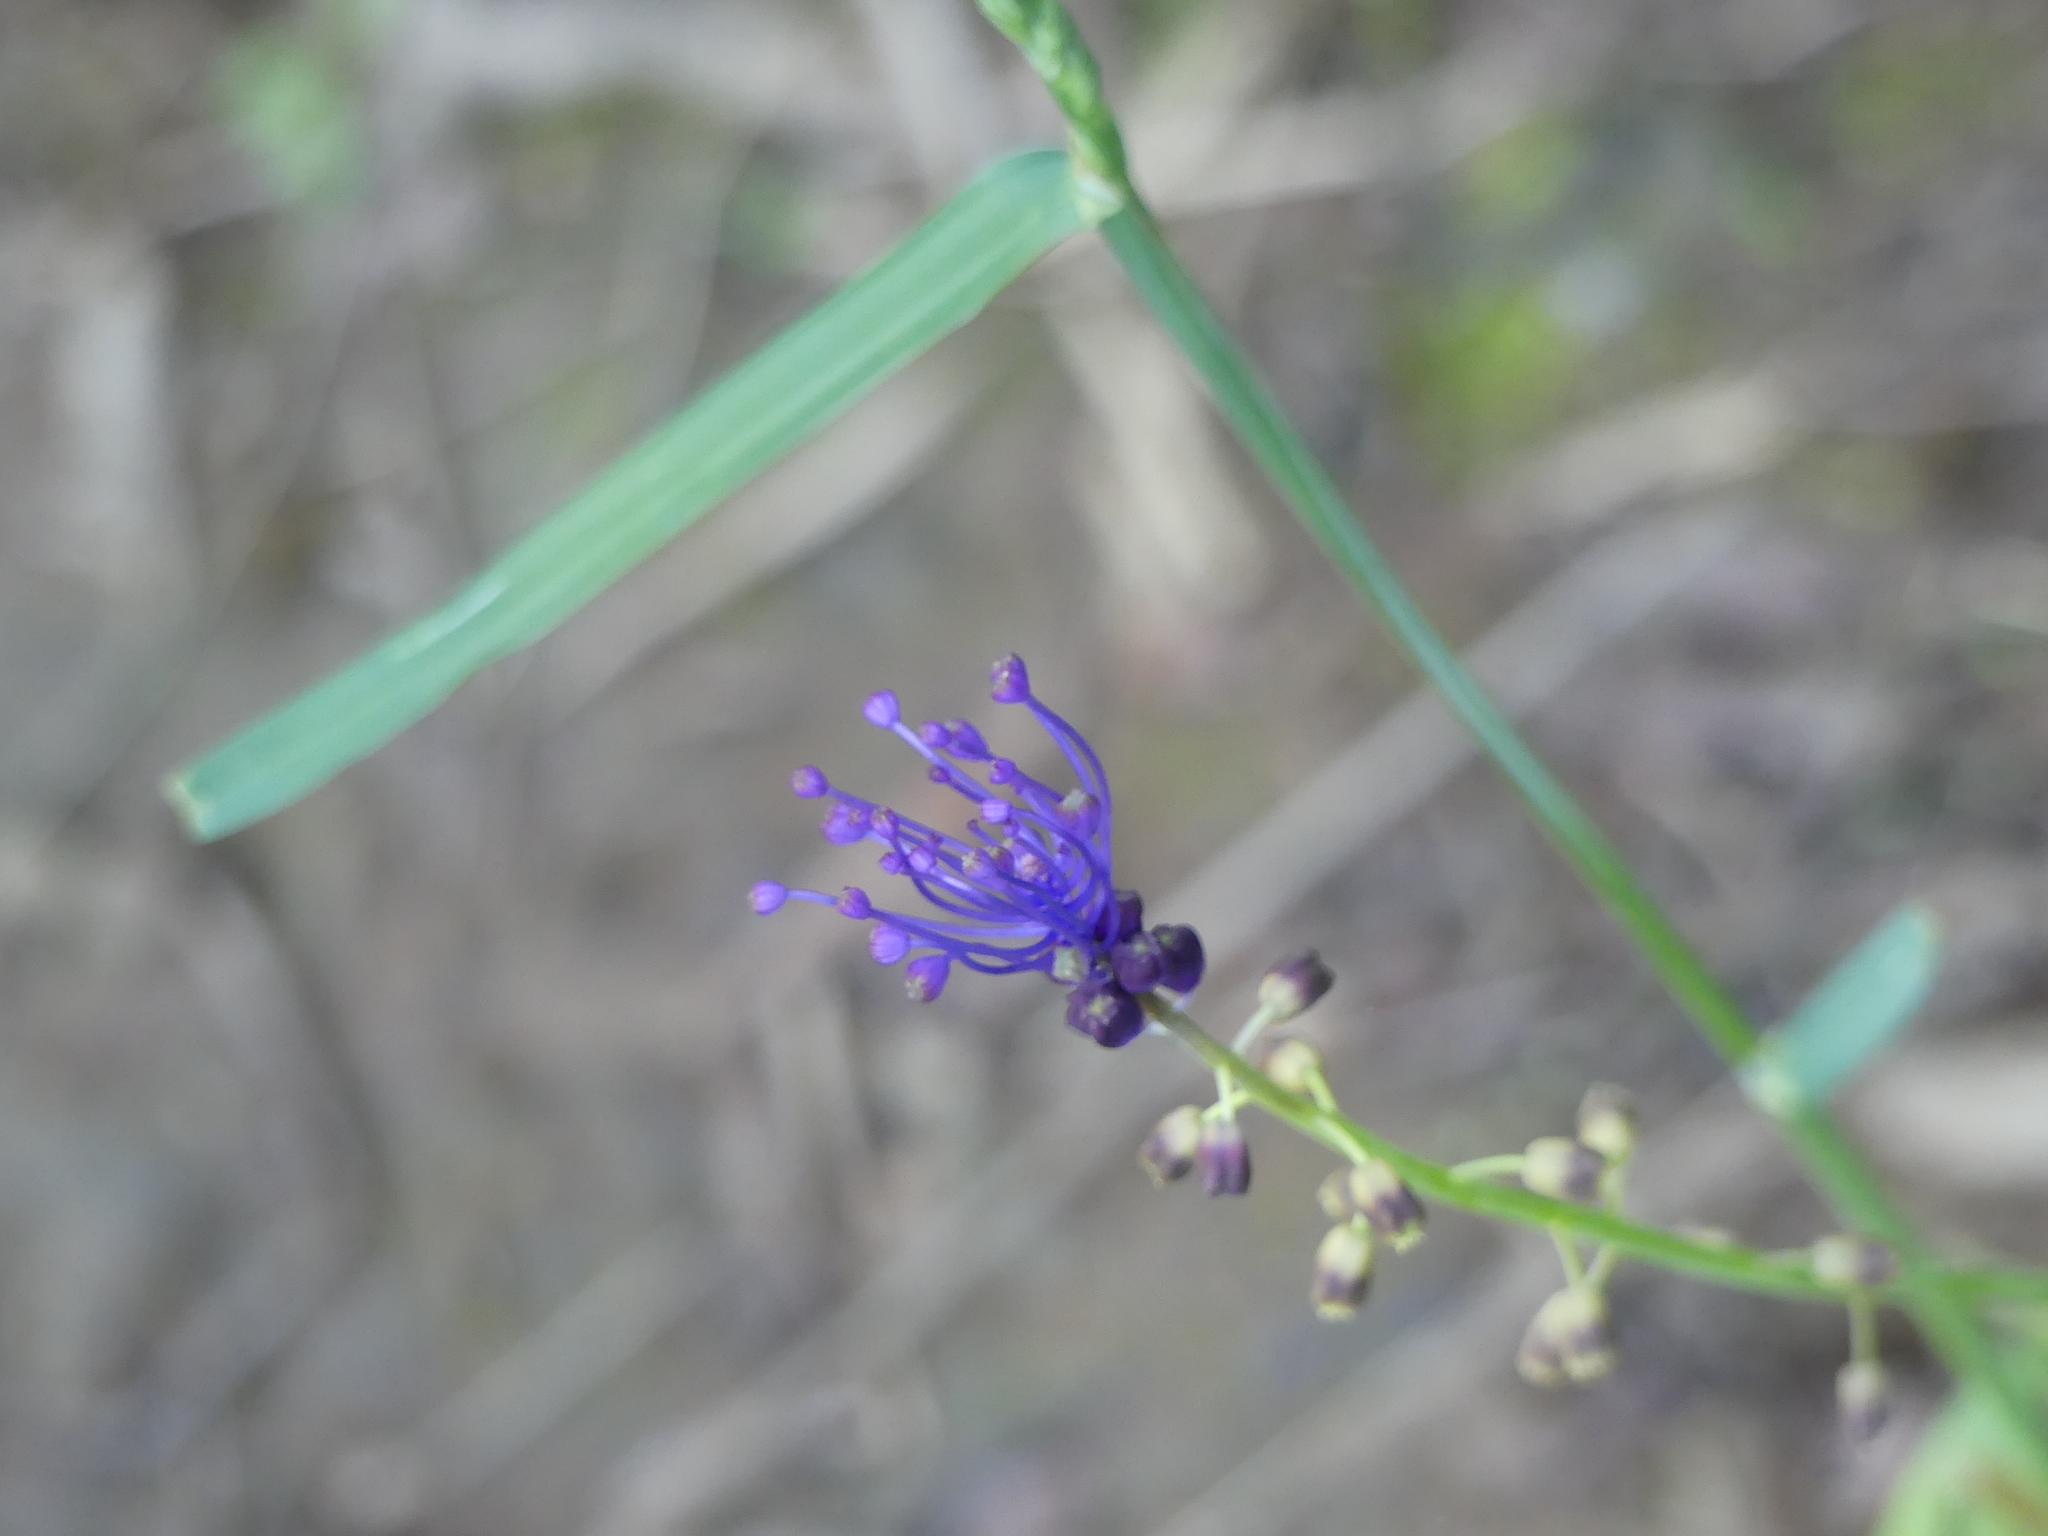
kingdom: Plantae
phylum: Tracheophyta
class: Liliopsida
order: Asparagales
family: Asparagaceae
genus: Muscari
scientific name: Muscari comosum
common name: Tassel hyacinth
